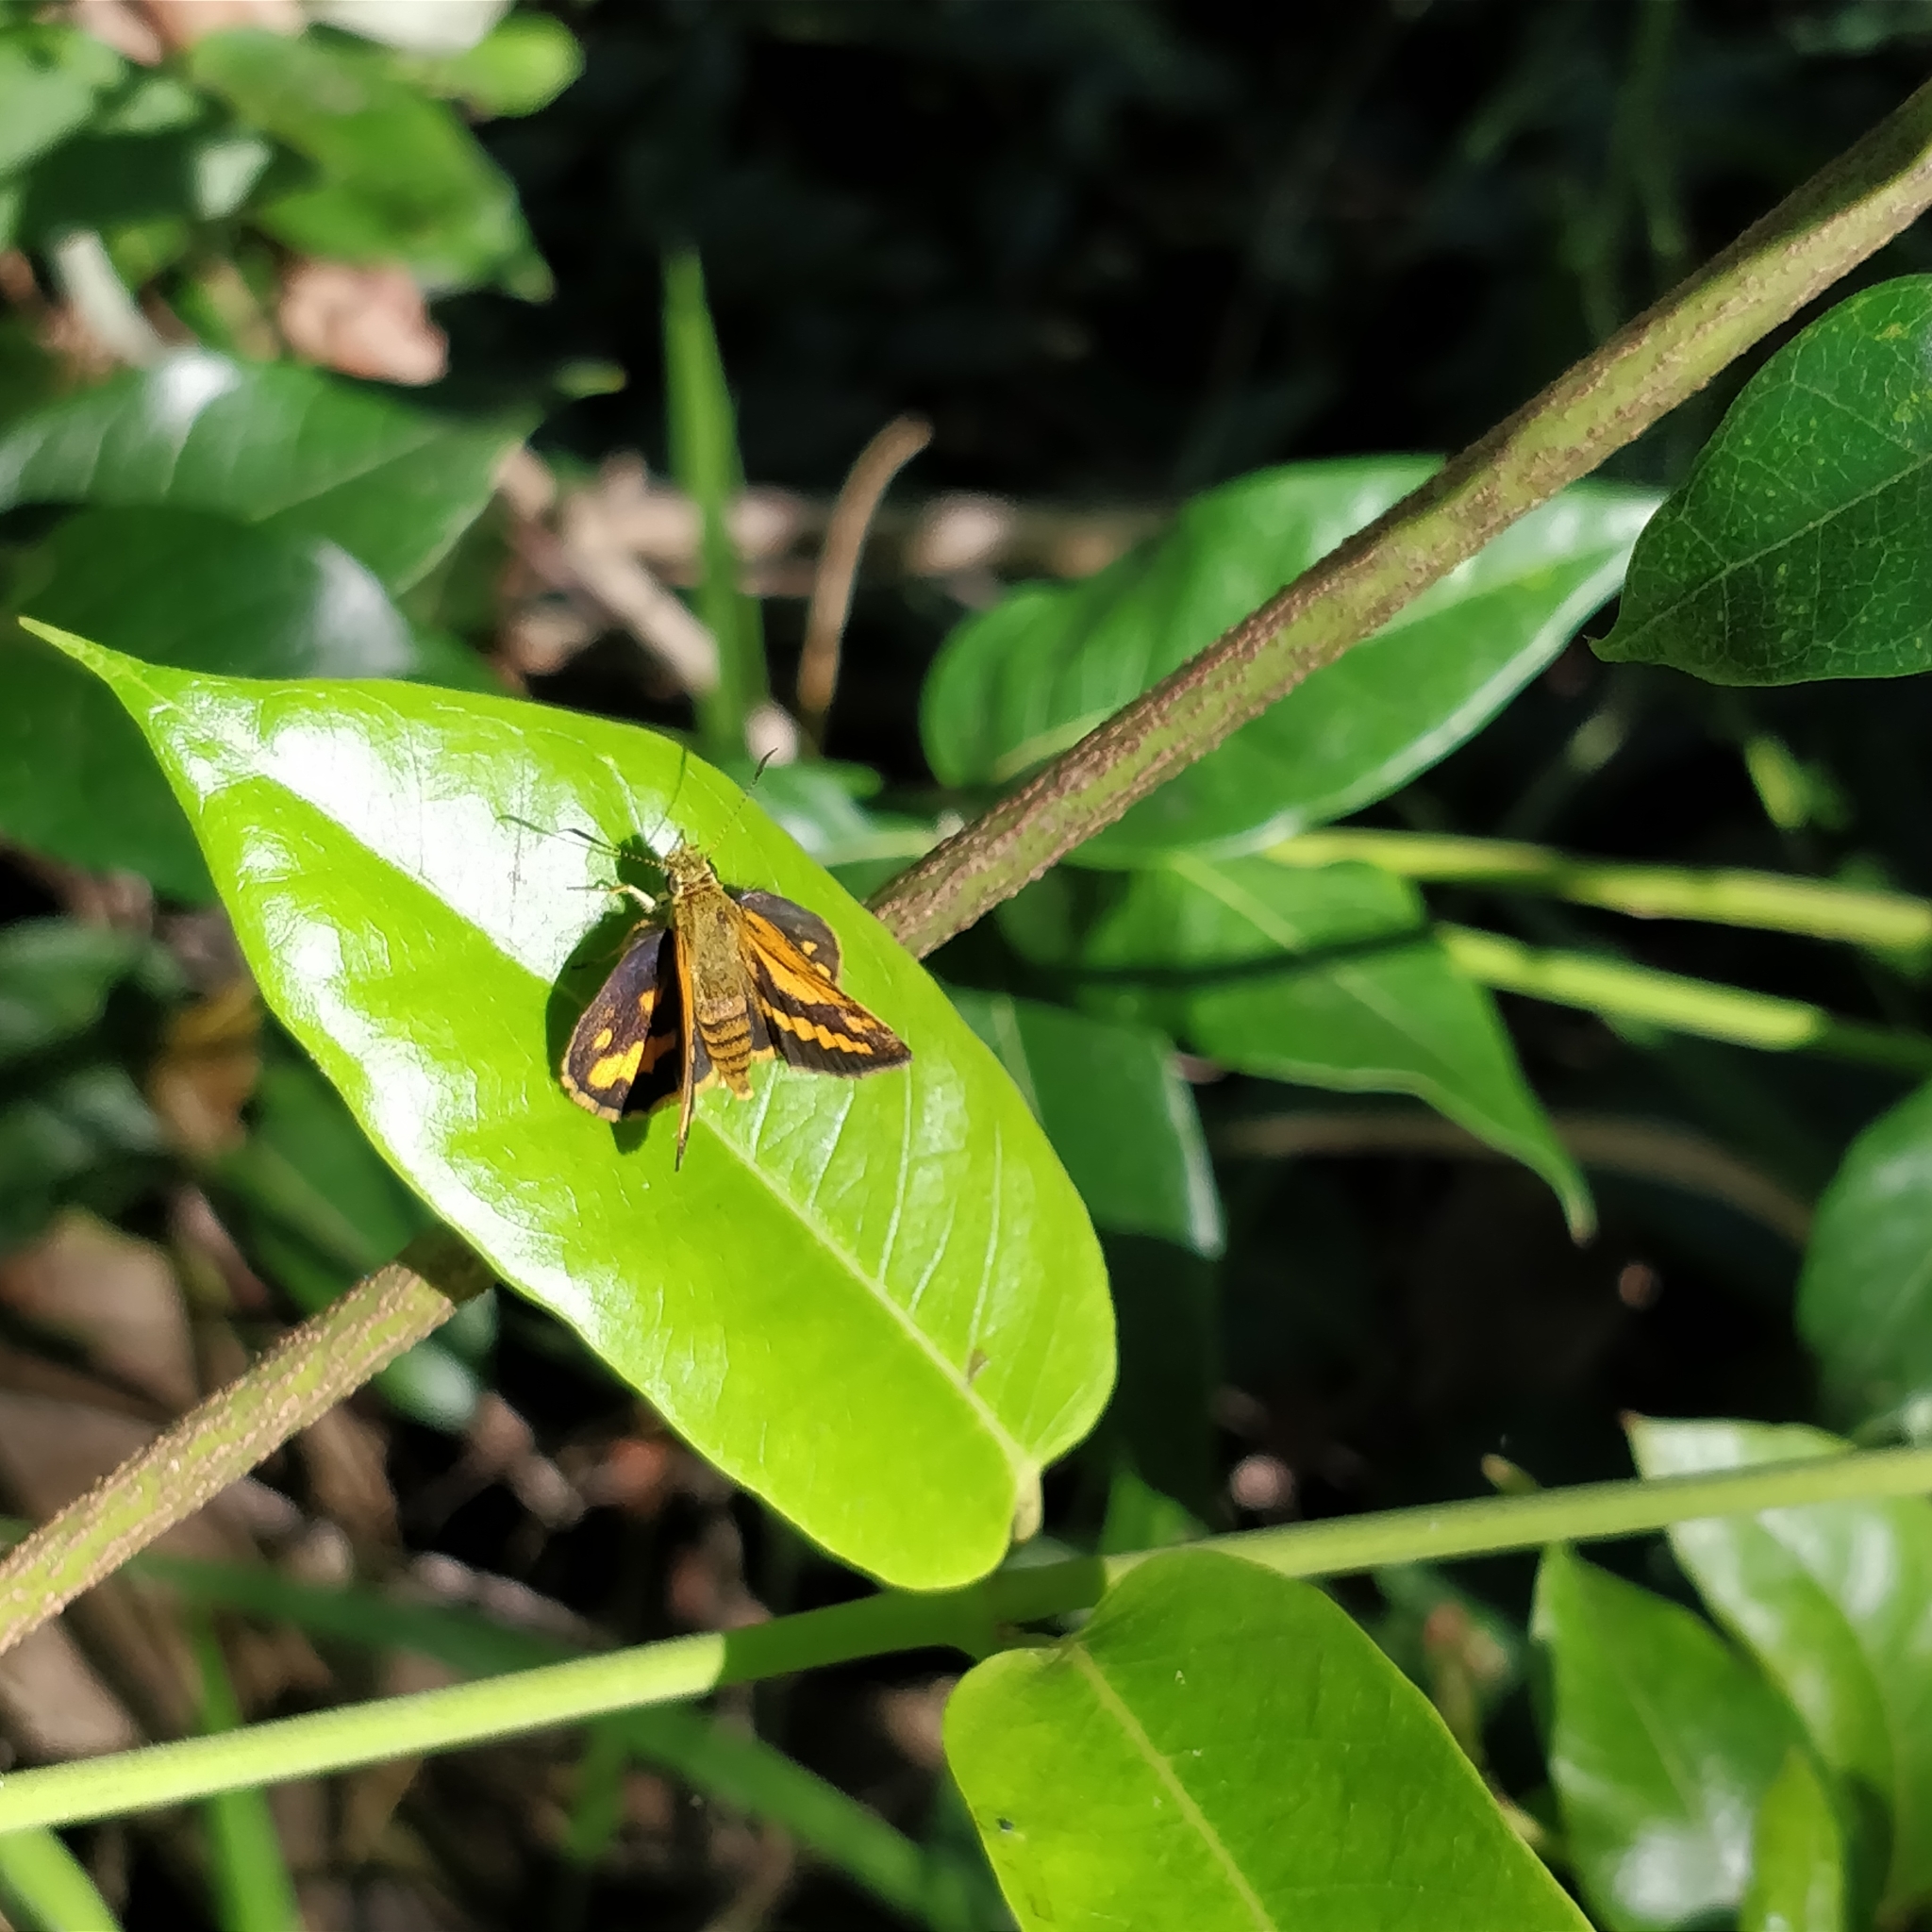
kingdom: Animalia
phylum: Arthropoda
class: Insecta
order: Lepidoptera
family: Hesperiidae
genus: Suniana
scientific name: Suniana sunias
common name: Wide-brand grass-dart
